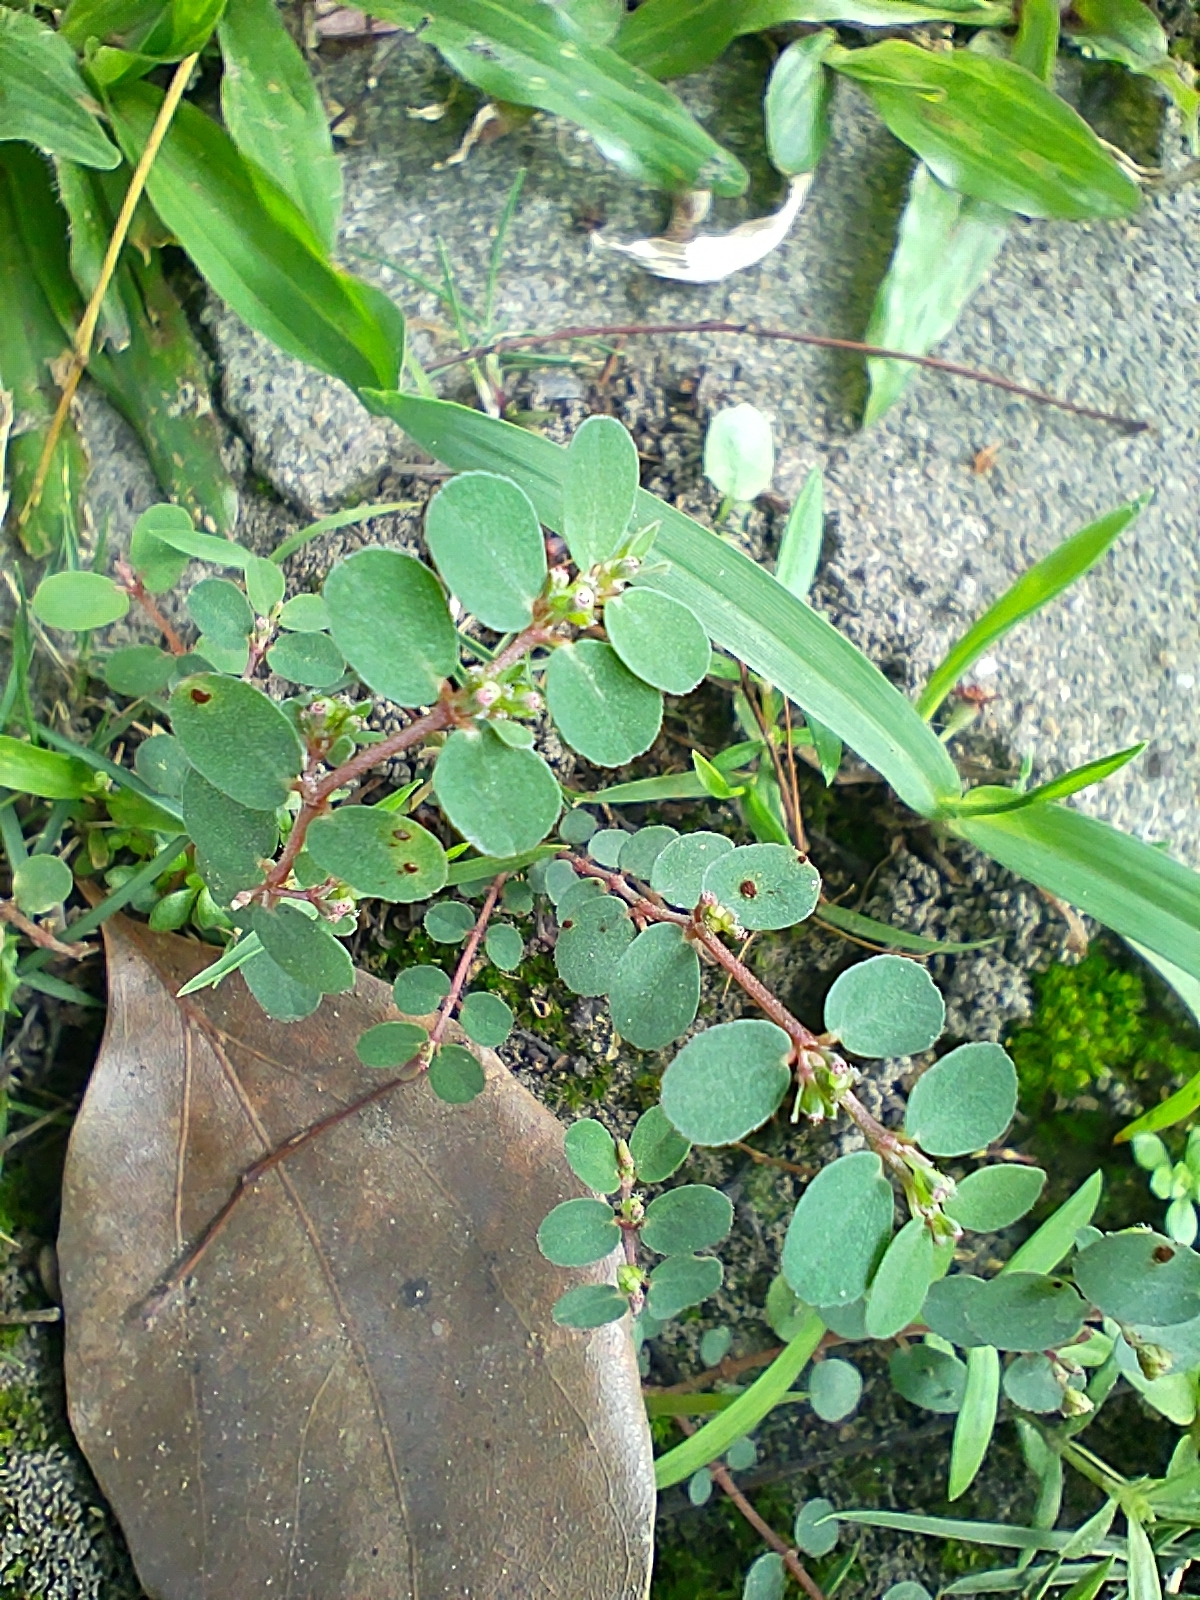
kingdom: Plantae
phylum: Tracheophyta
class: Magnoliopsida
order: Malpighiales
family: Euphorbiaceae
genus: Euphorbia
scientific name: Euphorbia prostrata
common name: Prostrate sandmat
